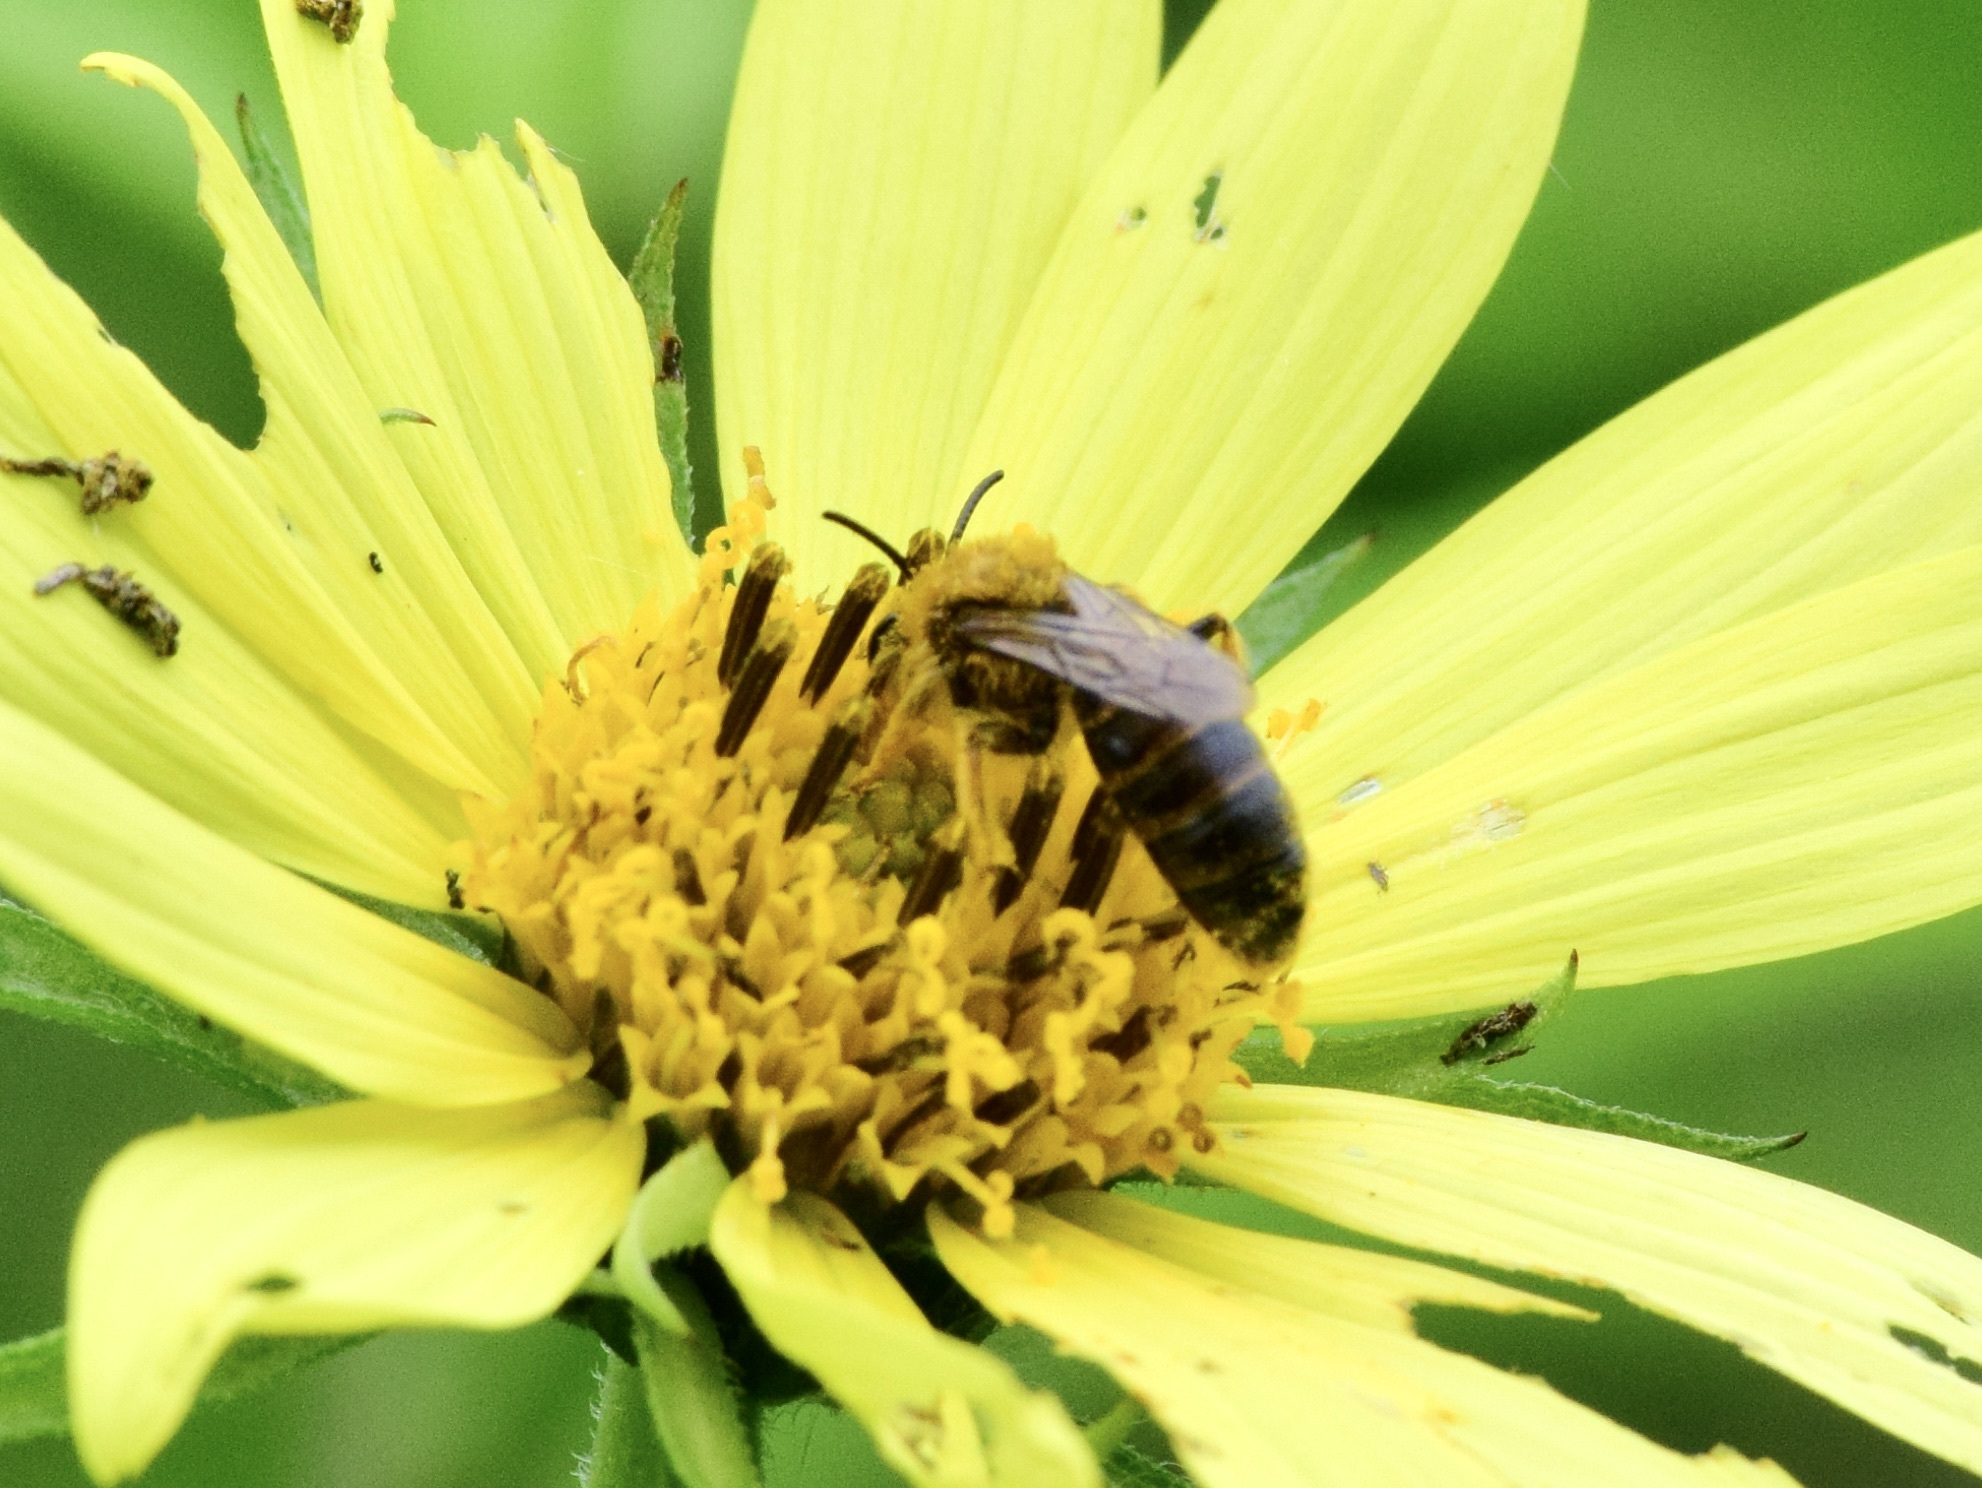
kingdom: Animalia
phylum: Arthropoda
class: Insecta
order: Hymenoptera
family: Andrenidae
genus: Andrena
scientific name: Andrena helianthi
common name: Sunflower mining bee
